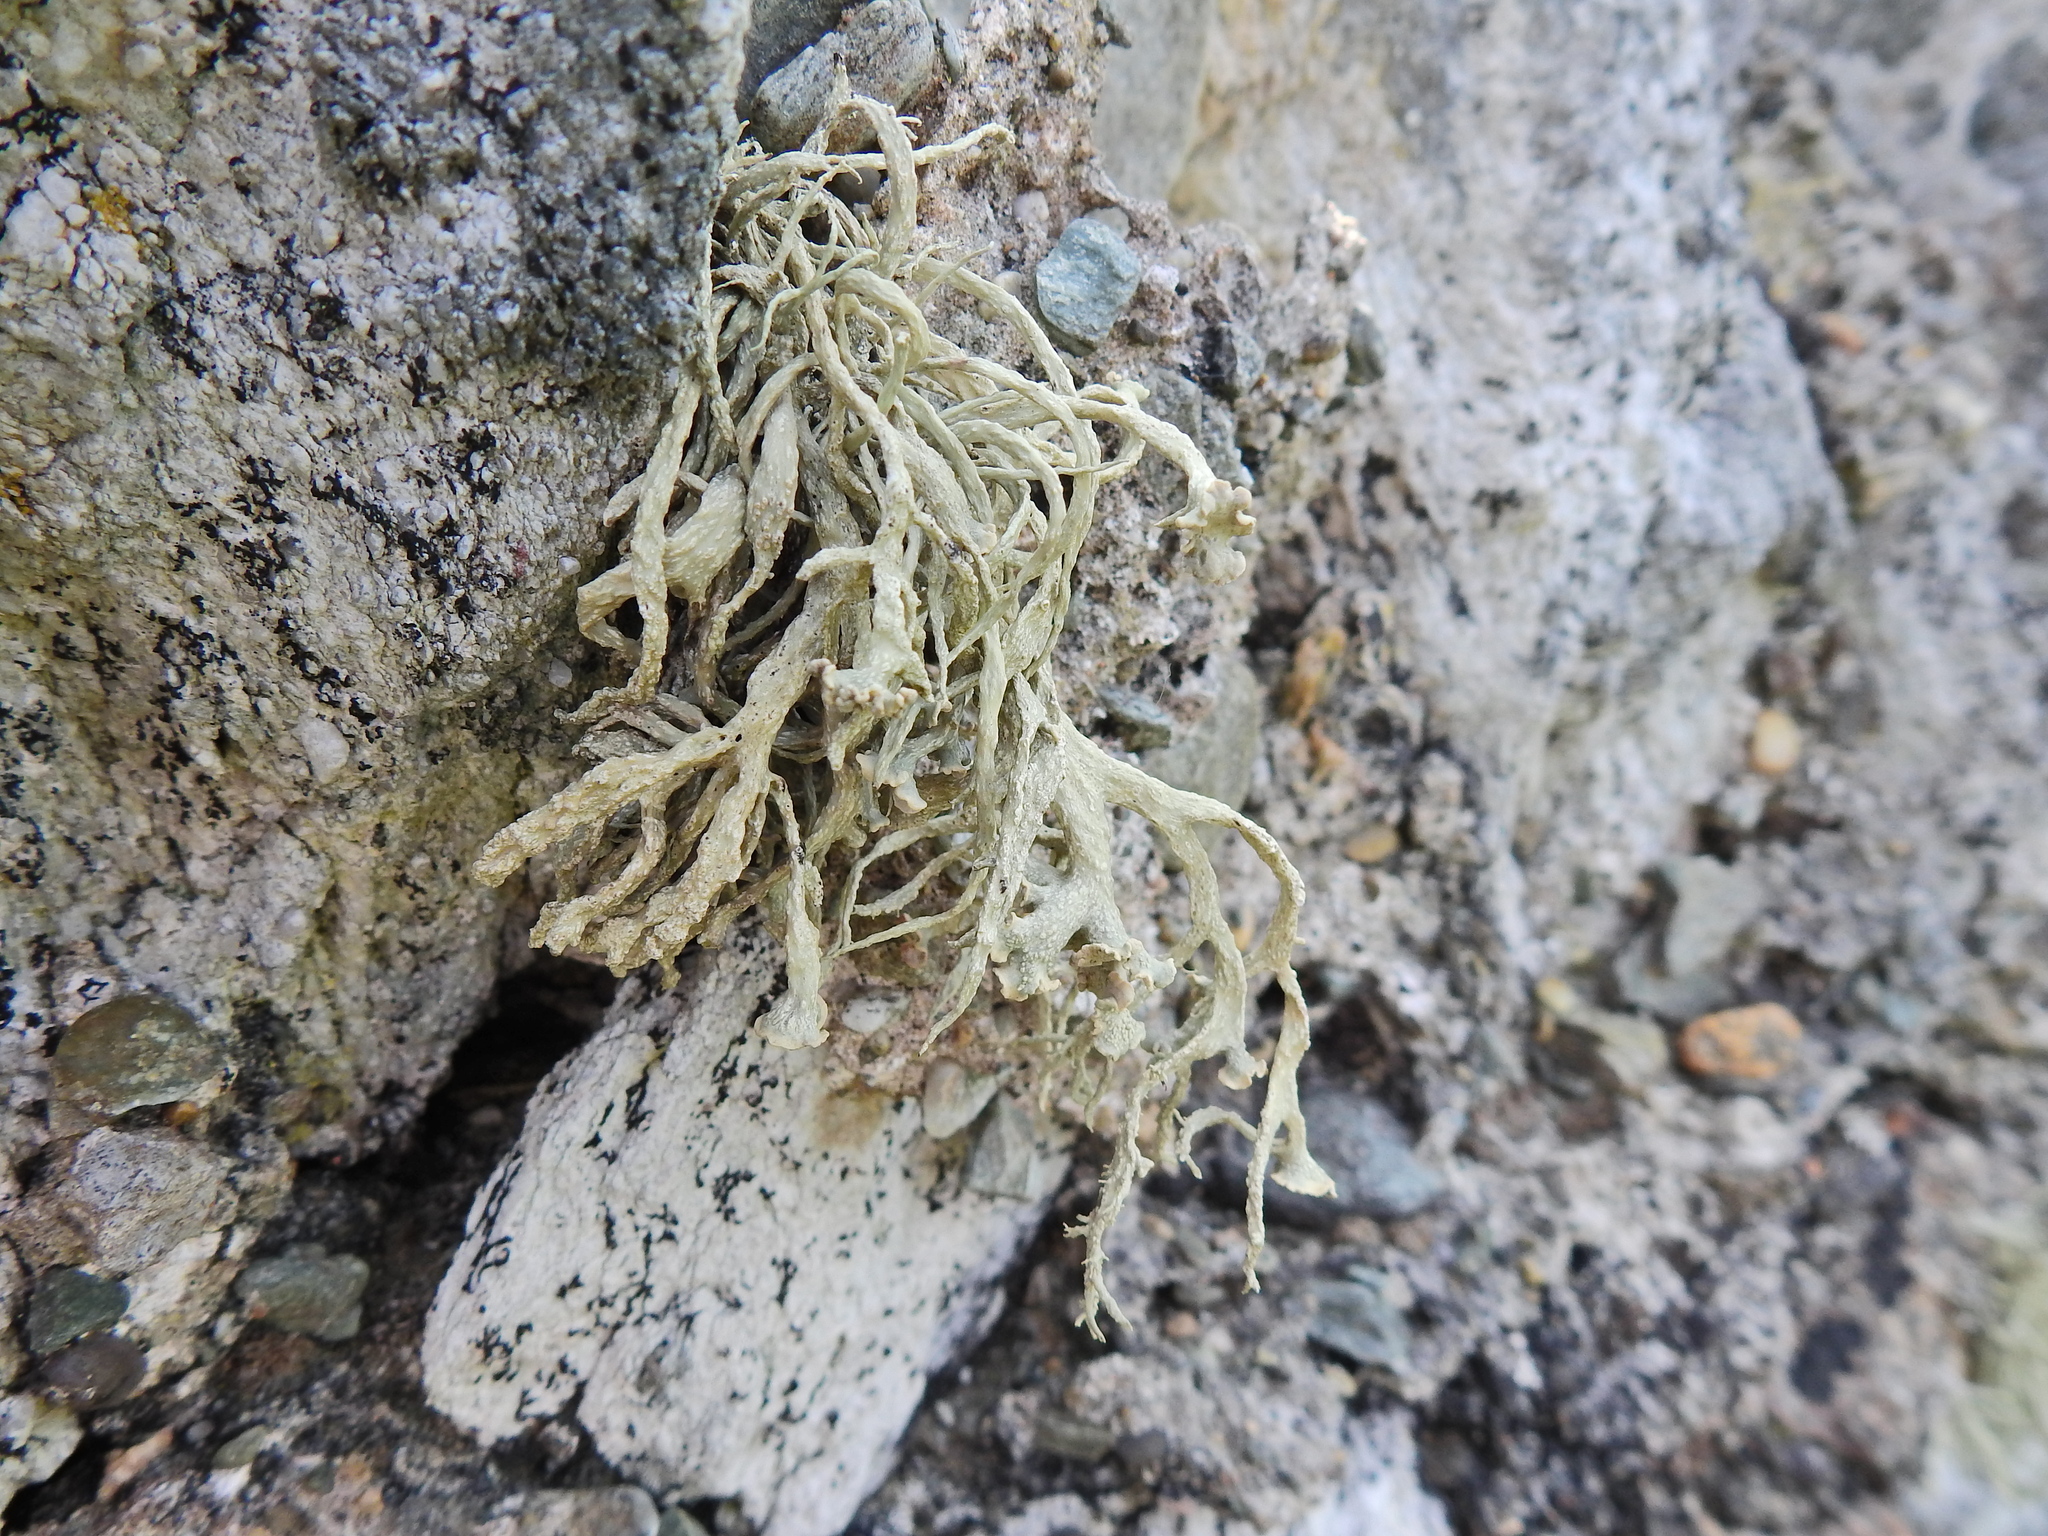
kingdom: Fungi
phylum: Ascomycota
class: Lecanoromycetes
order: Lecanorales
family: Ramalinaceae
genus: Ramalina
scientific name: Ramalina siliquosa
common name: Sea ivory
